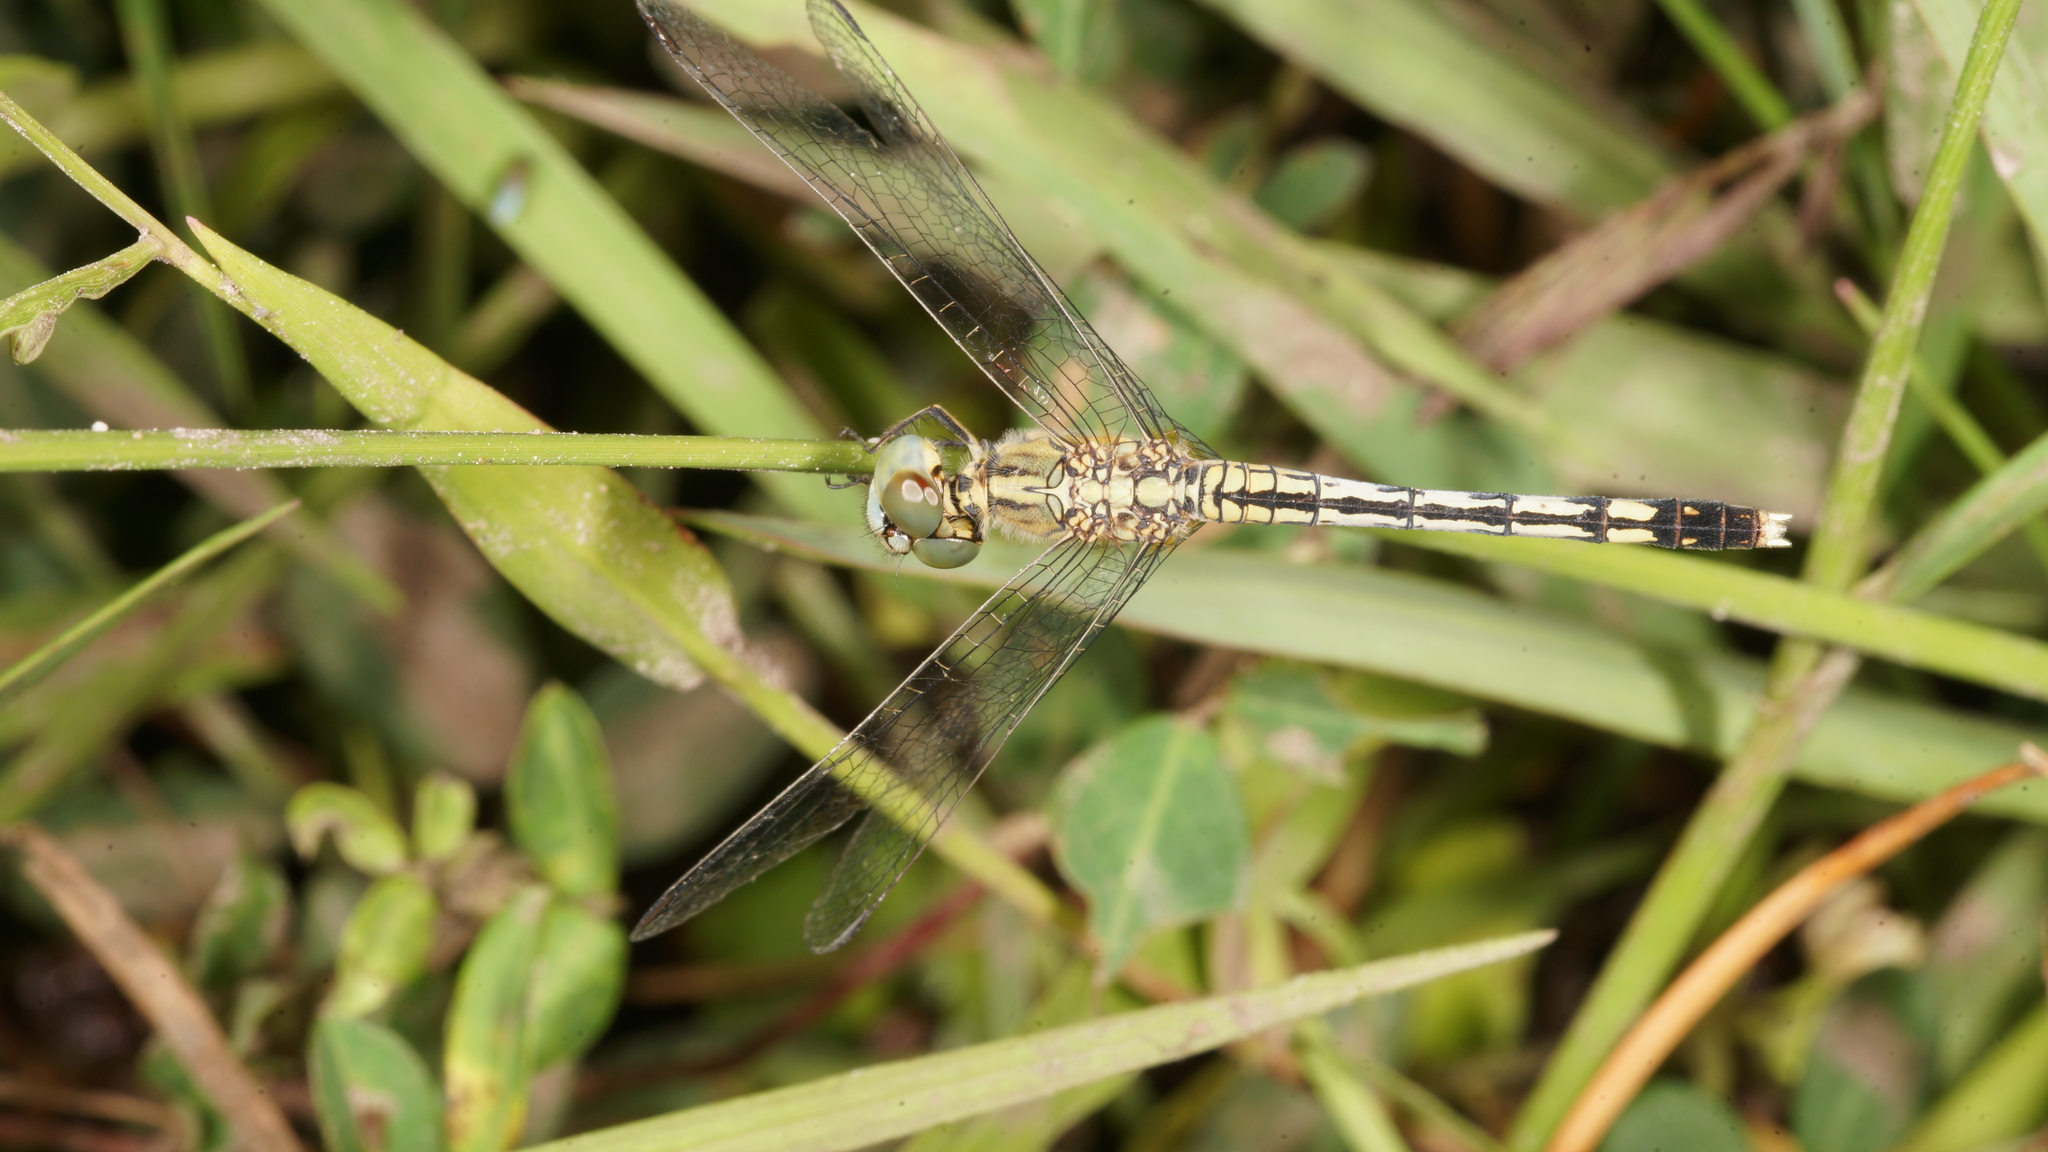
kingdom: Animalia
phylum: Arthropoda
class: Insecta
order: Odonata
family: Libellulidae
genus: Diplacodes
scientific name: Diplacodes trivialis
